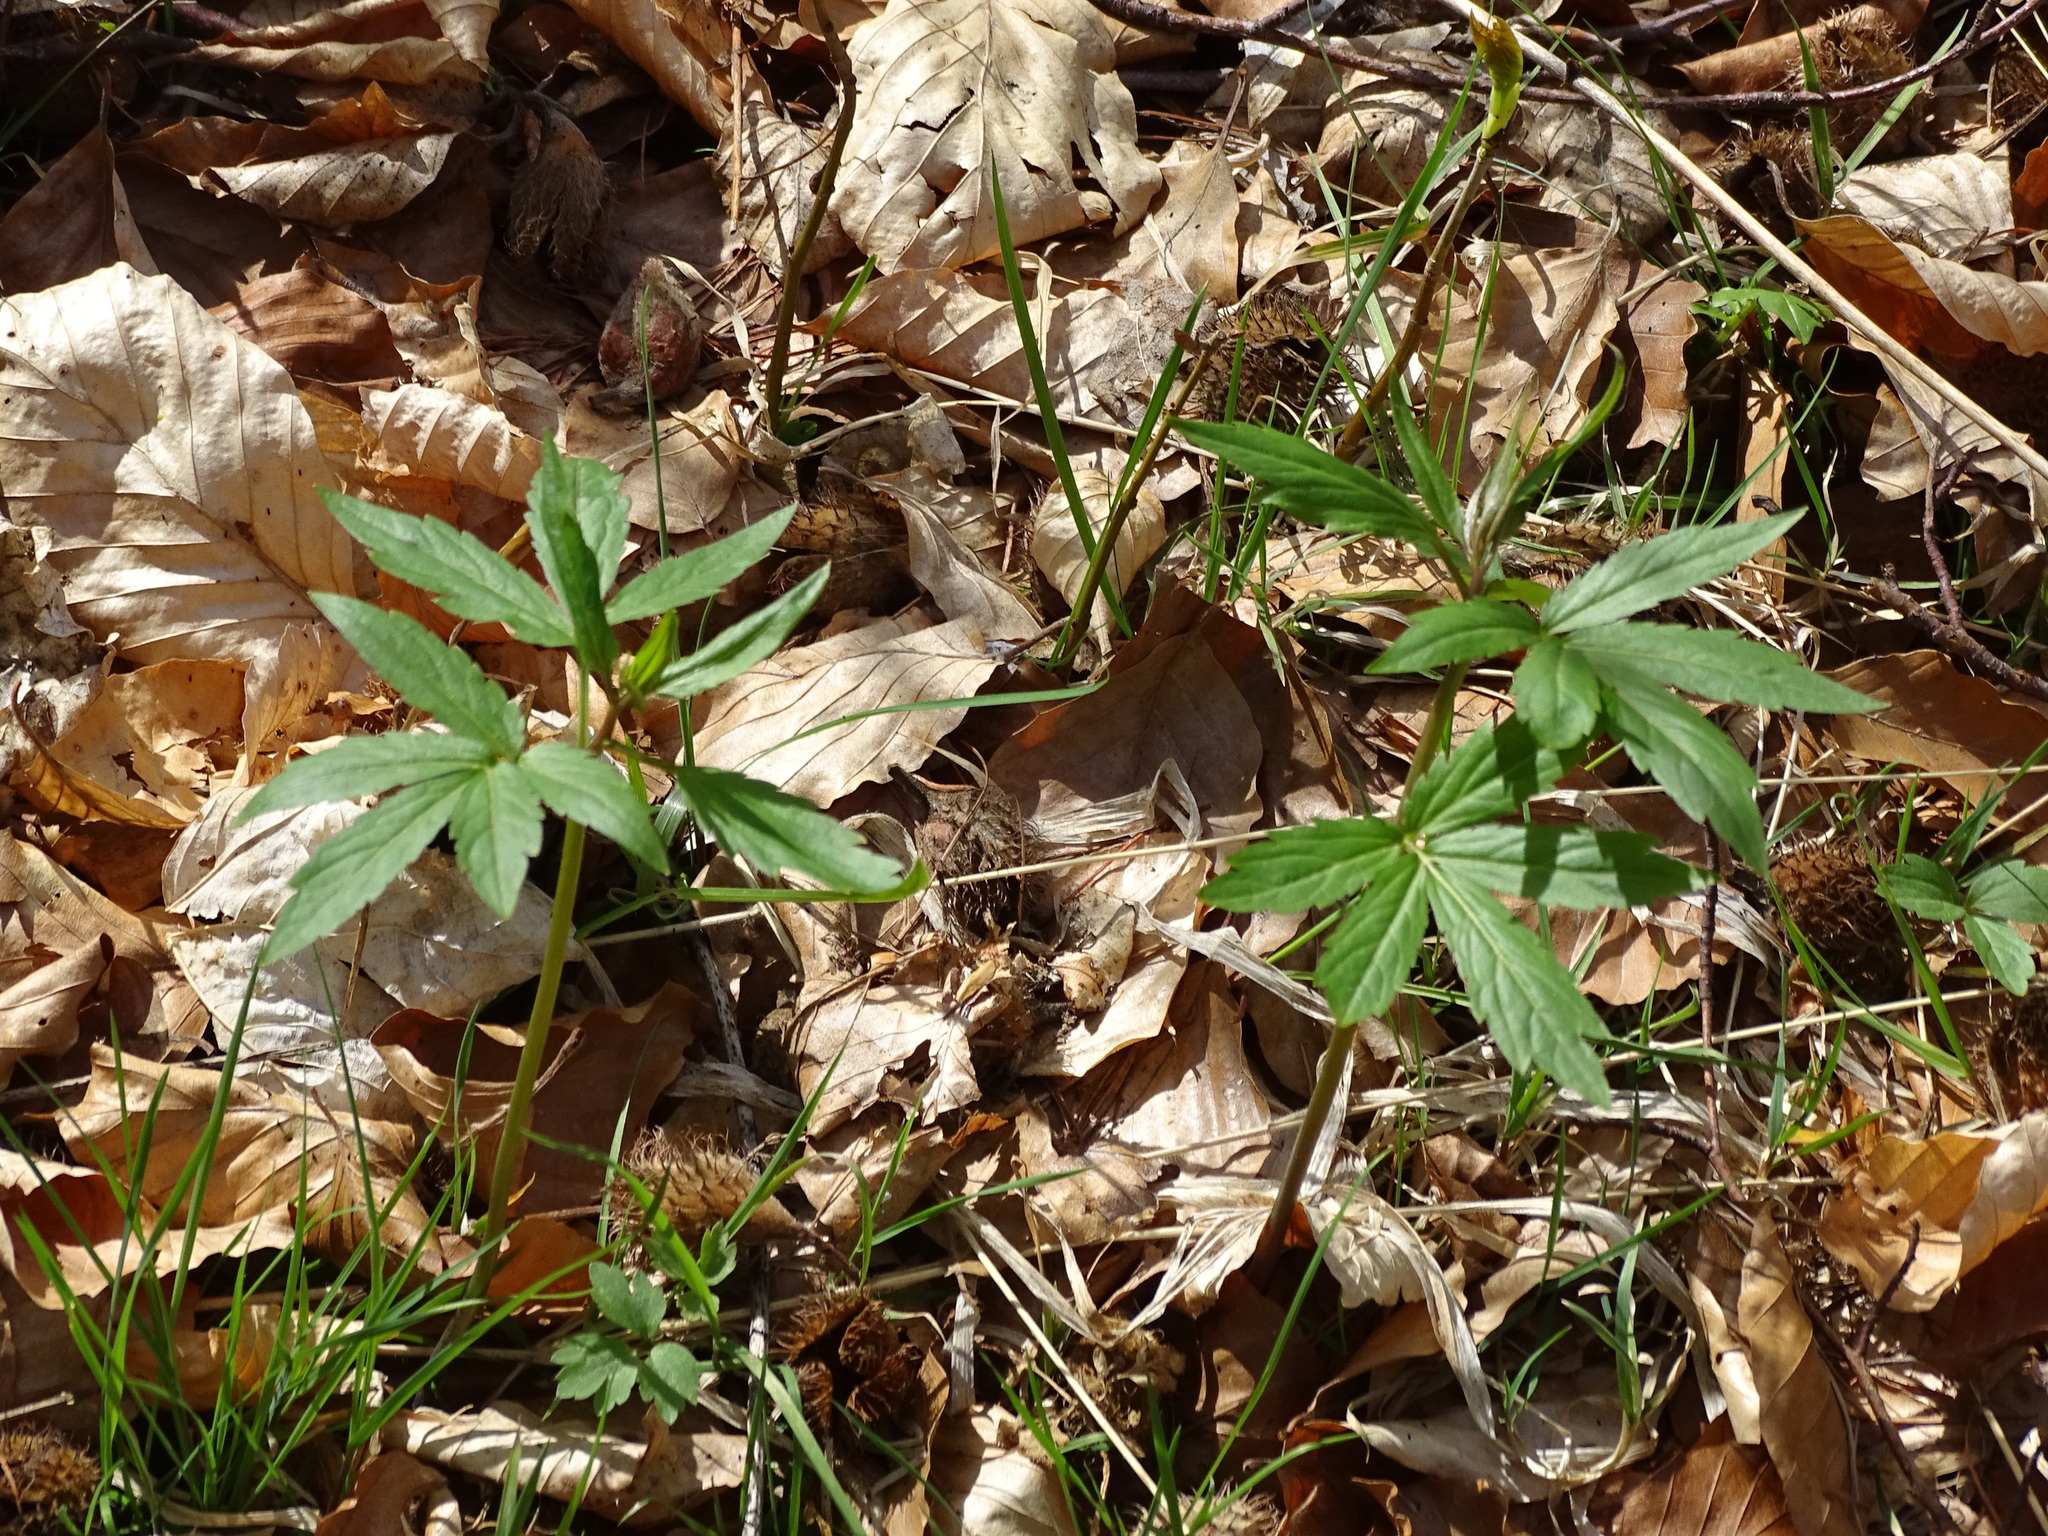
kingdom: Plantae
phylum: Tracheophyta
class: Magnoliopsida
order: Brassicales
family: Brassicaceae
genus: Cardamine
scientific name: Cardamine bulbifera
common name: Coralroot bittercress
